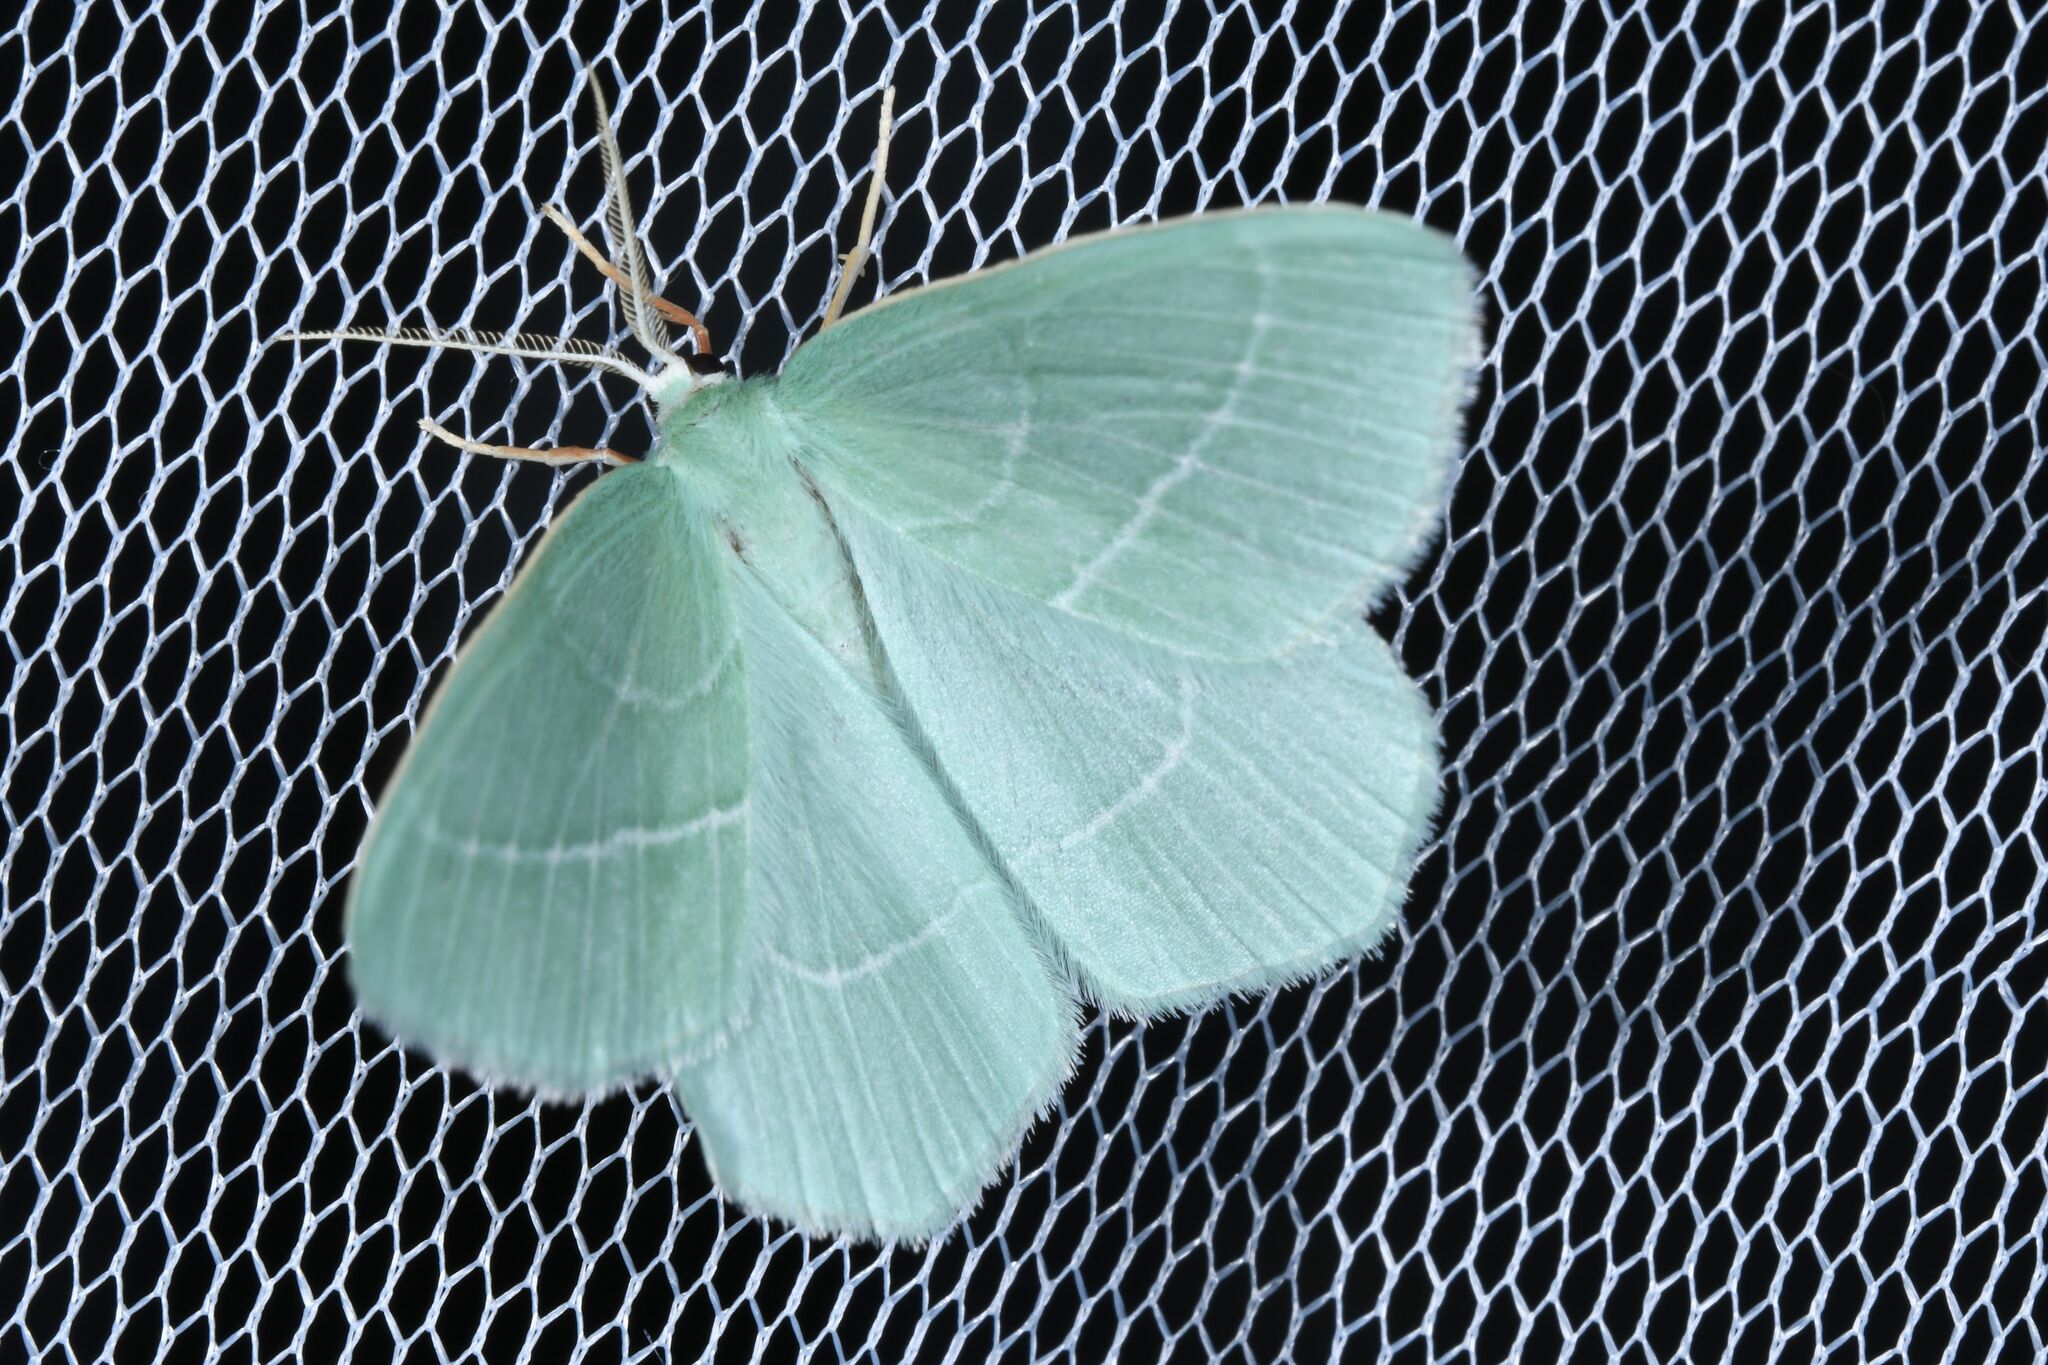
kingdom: Animalia
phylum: Arthropoda
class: Insecta
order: Lepidoptera
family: Geometridae
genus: Hemistola
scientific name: Hemistola chrysoprasaria
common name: Small emerald
